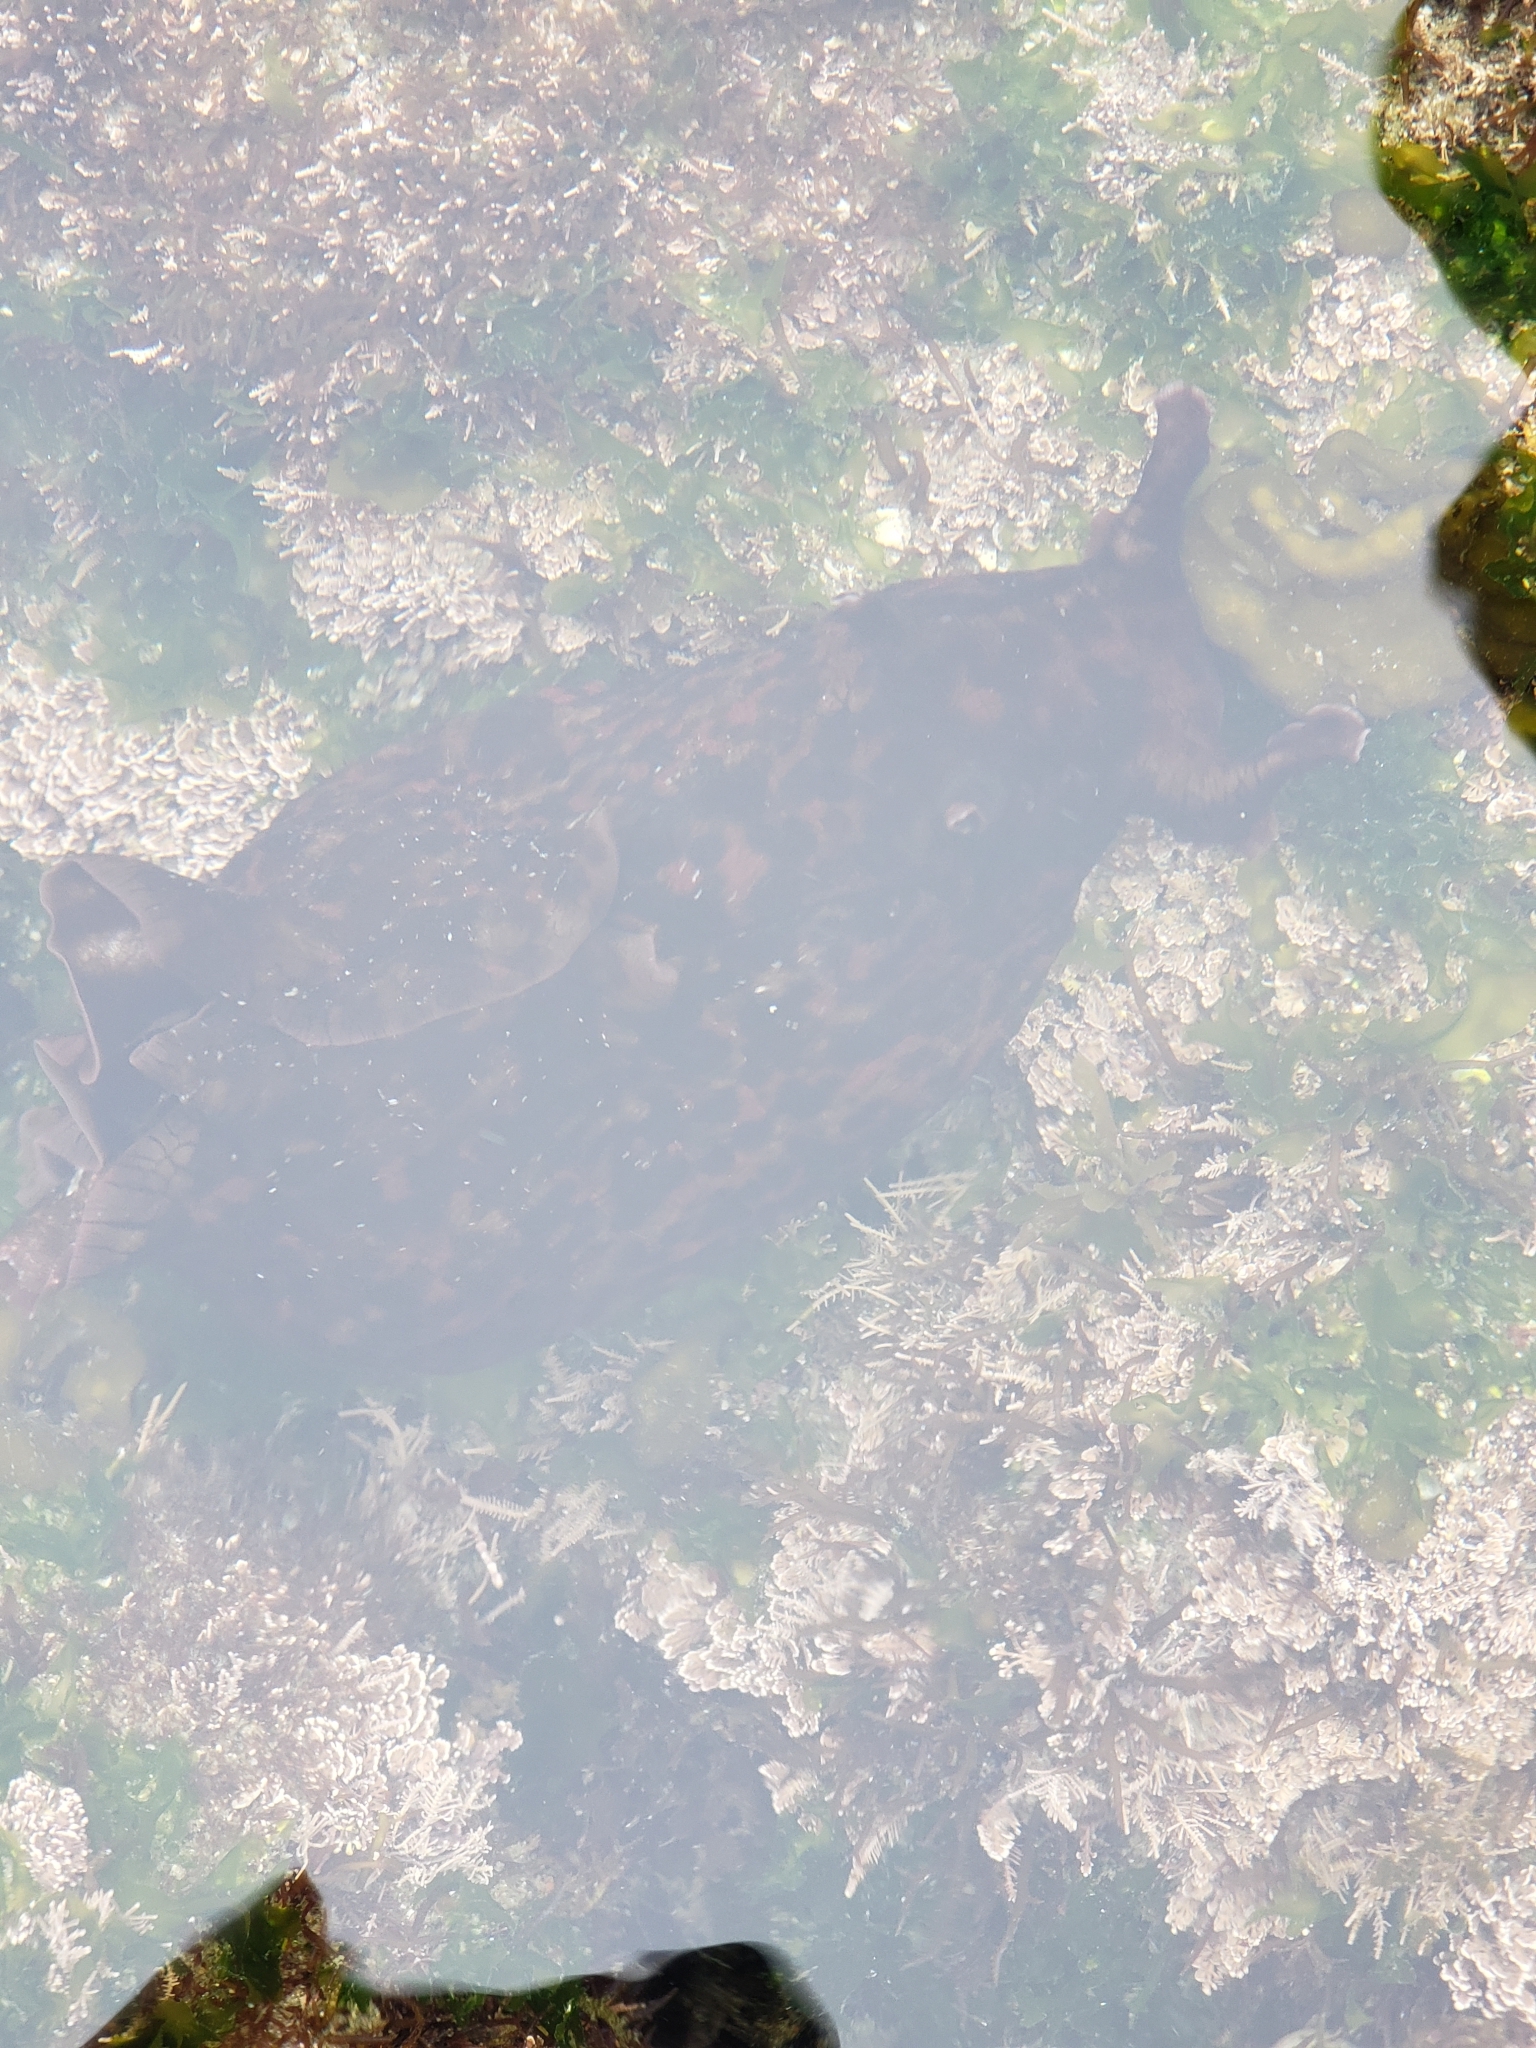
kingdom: Animalia
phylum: Mollusca
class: Gastropoda
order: Aplysiida
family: Aplysiidae
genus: Aplysia
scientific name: Aplysia californica
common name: California seahare
